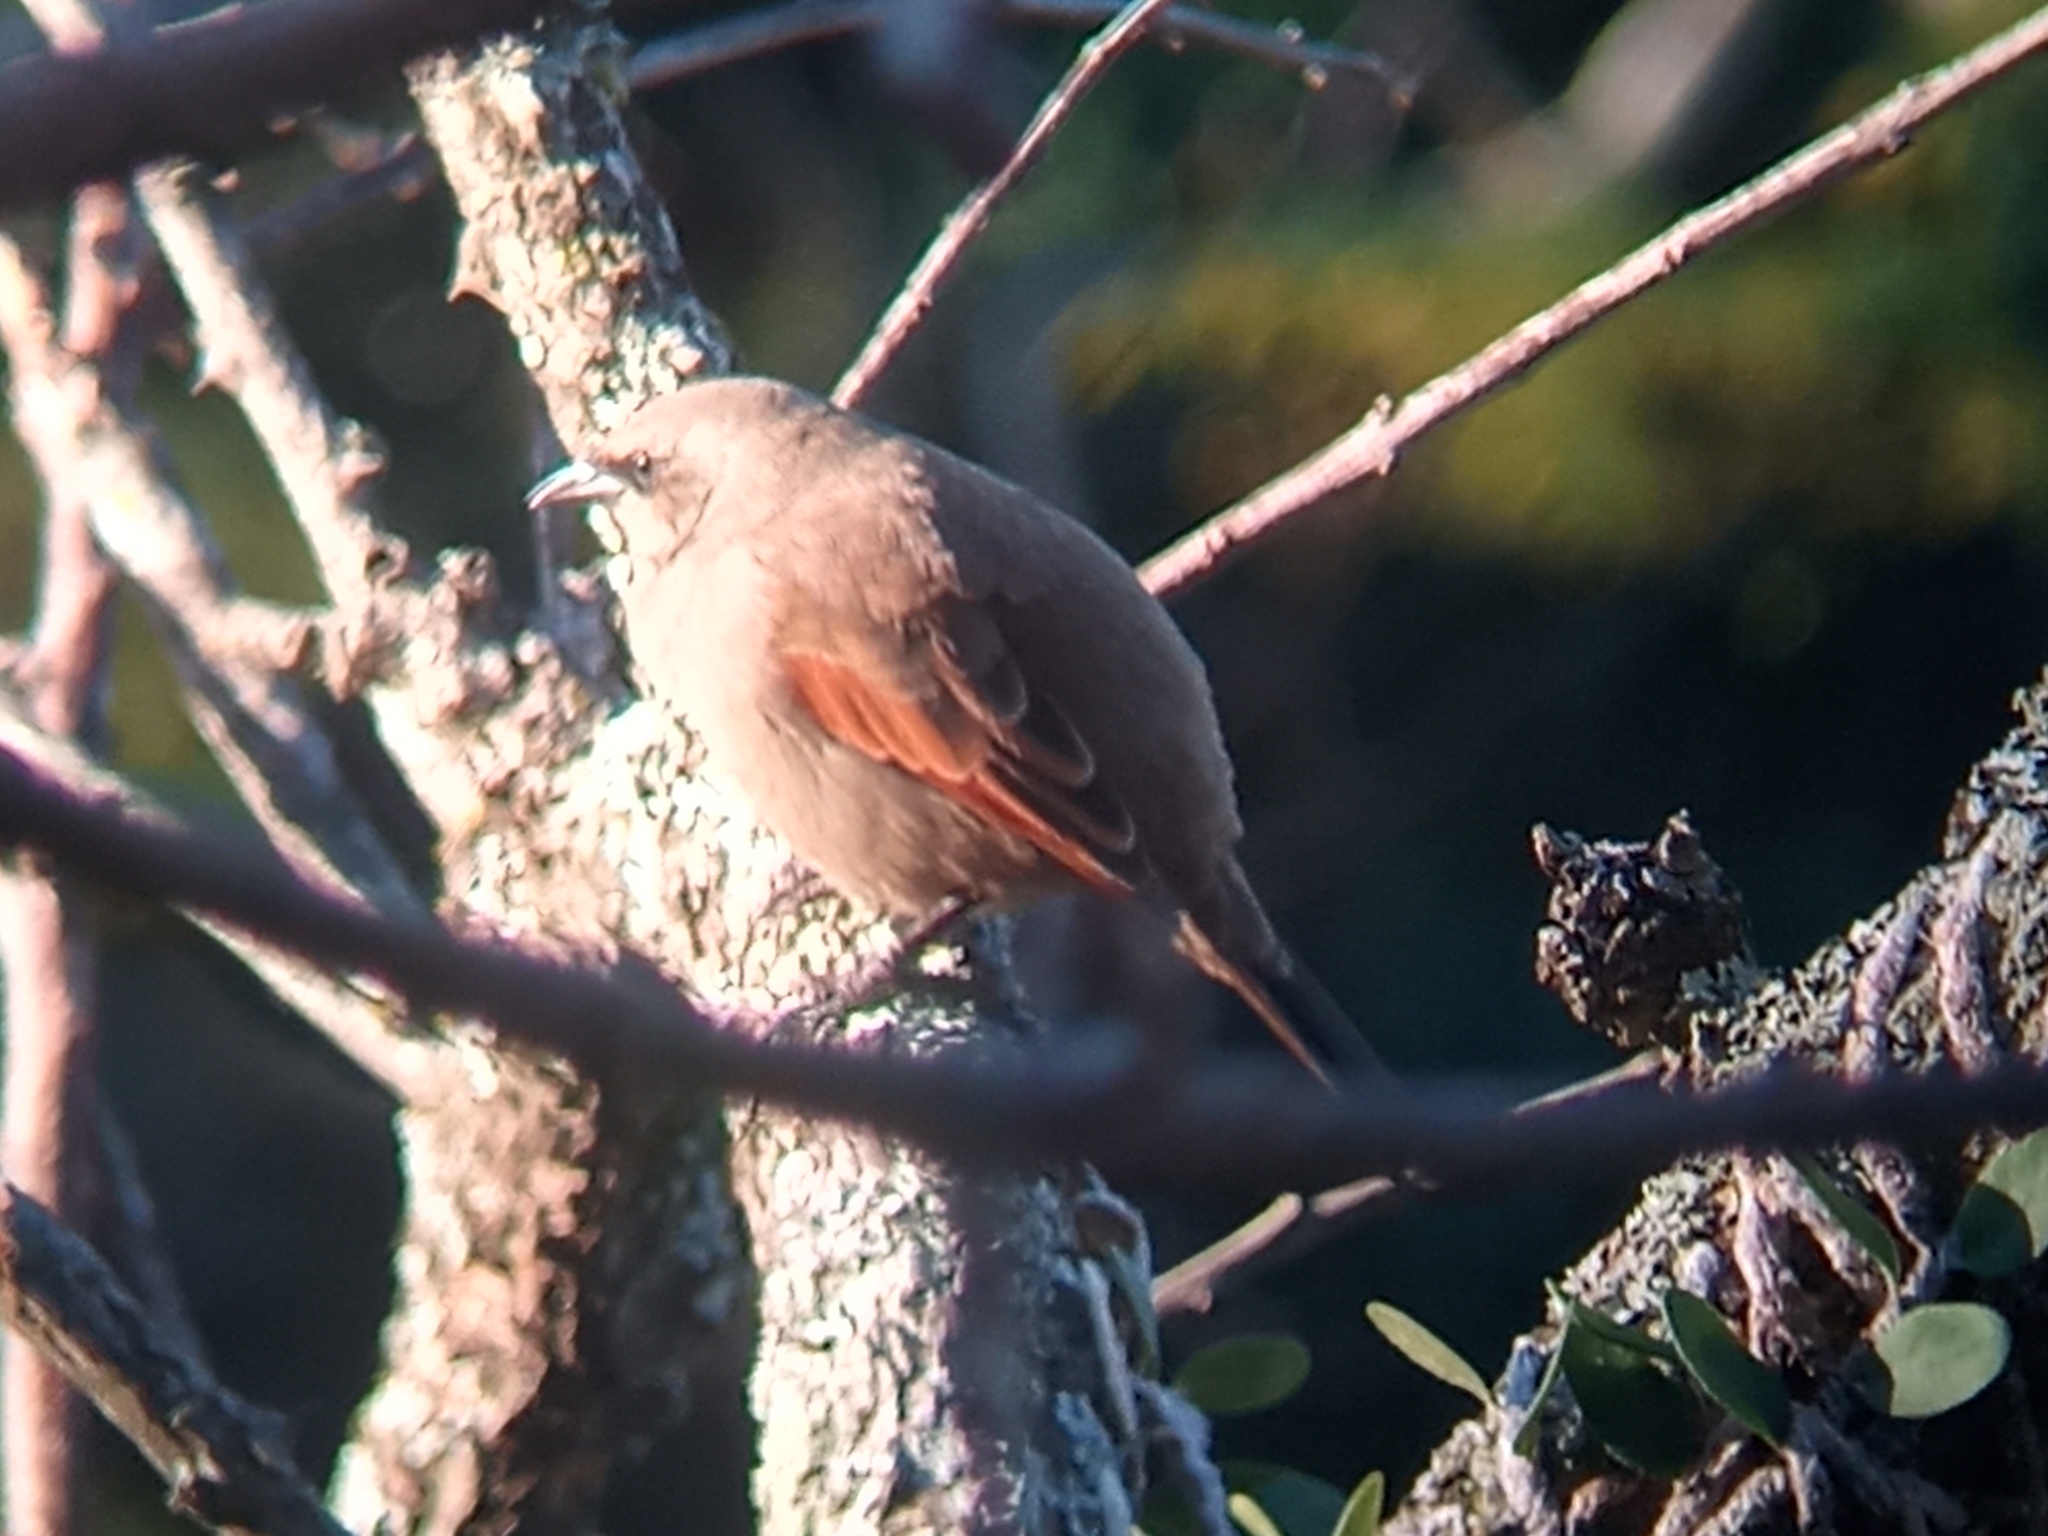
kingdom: Animalia
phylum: Chordata
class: Aves
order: Passeriformes
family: Icteridae
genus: Agelaioides
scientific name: Agelaioides badius
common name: Baywing
